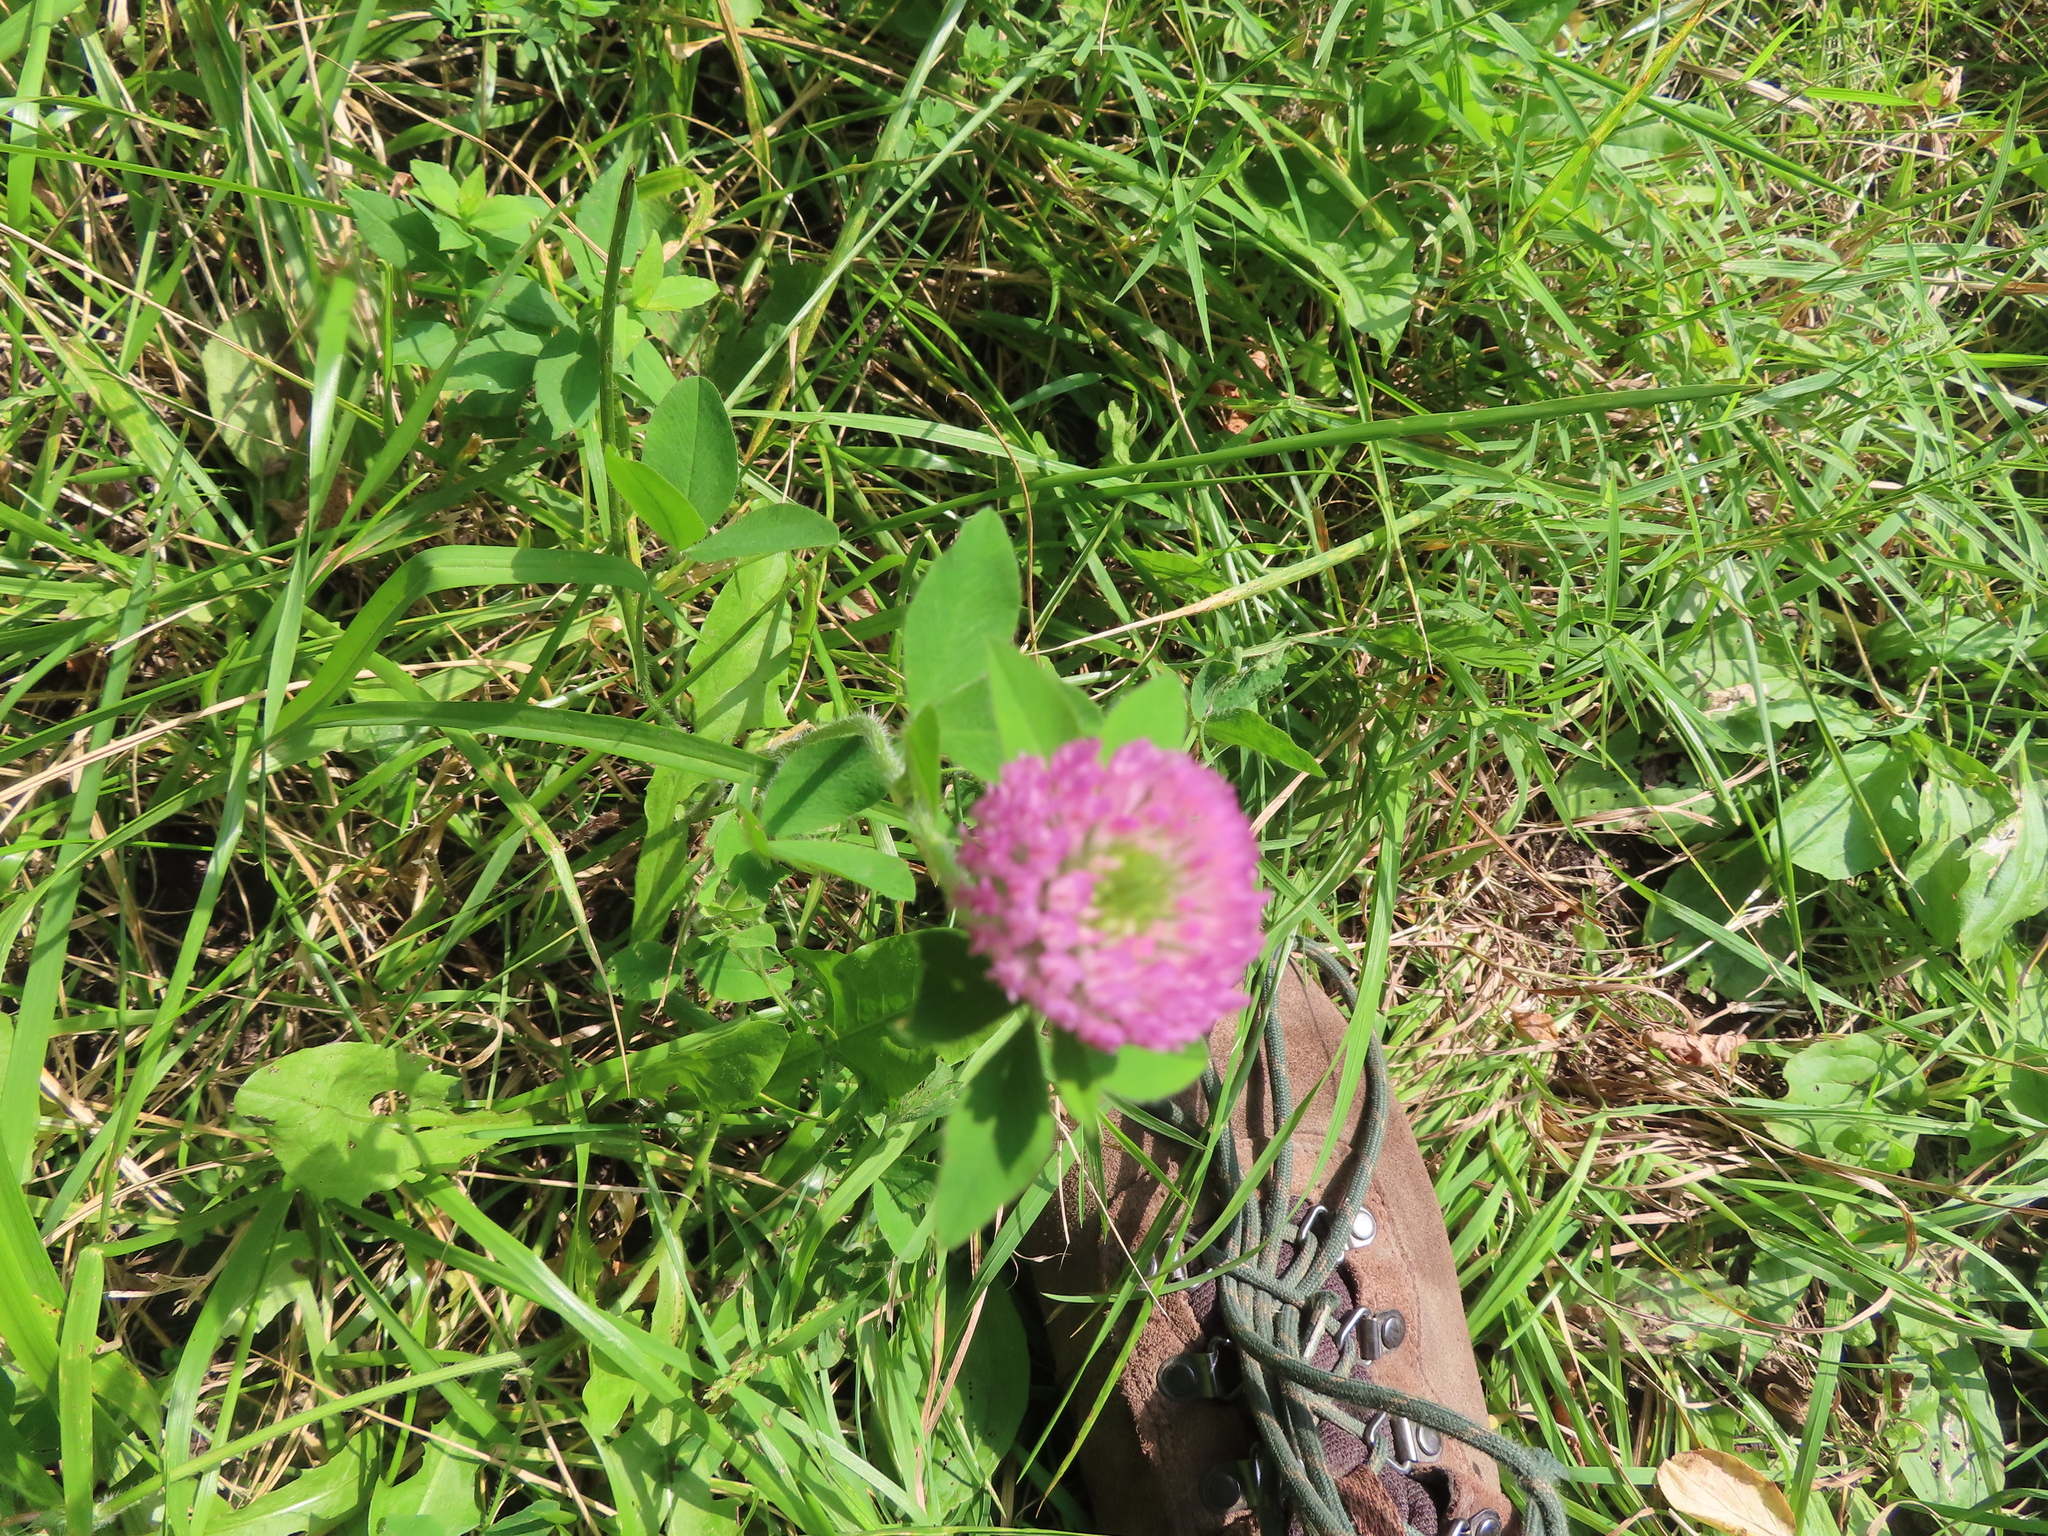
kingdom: Plantae
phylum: Tracheophyta
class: Magnoliopsida
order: Fabales
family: Fabaceae
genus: Trifolium
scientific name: Trifolium pratense
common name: Red clover
